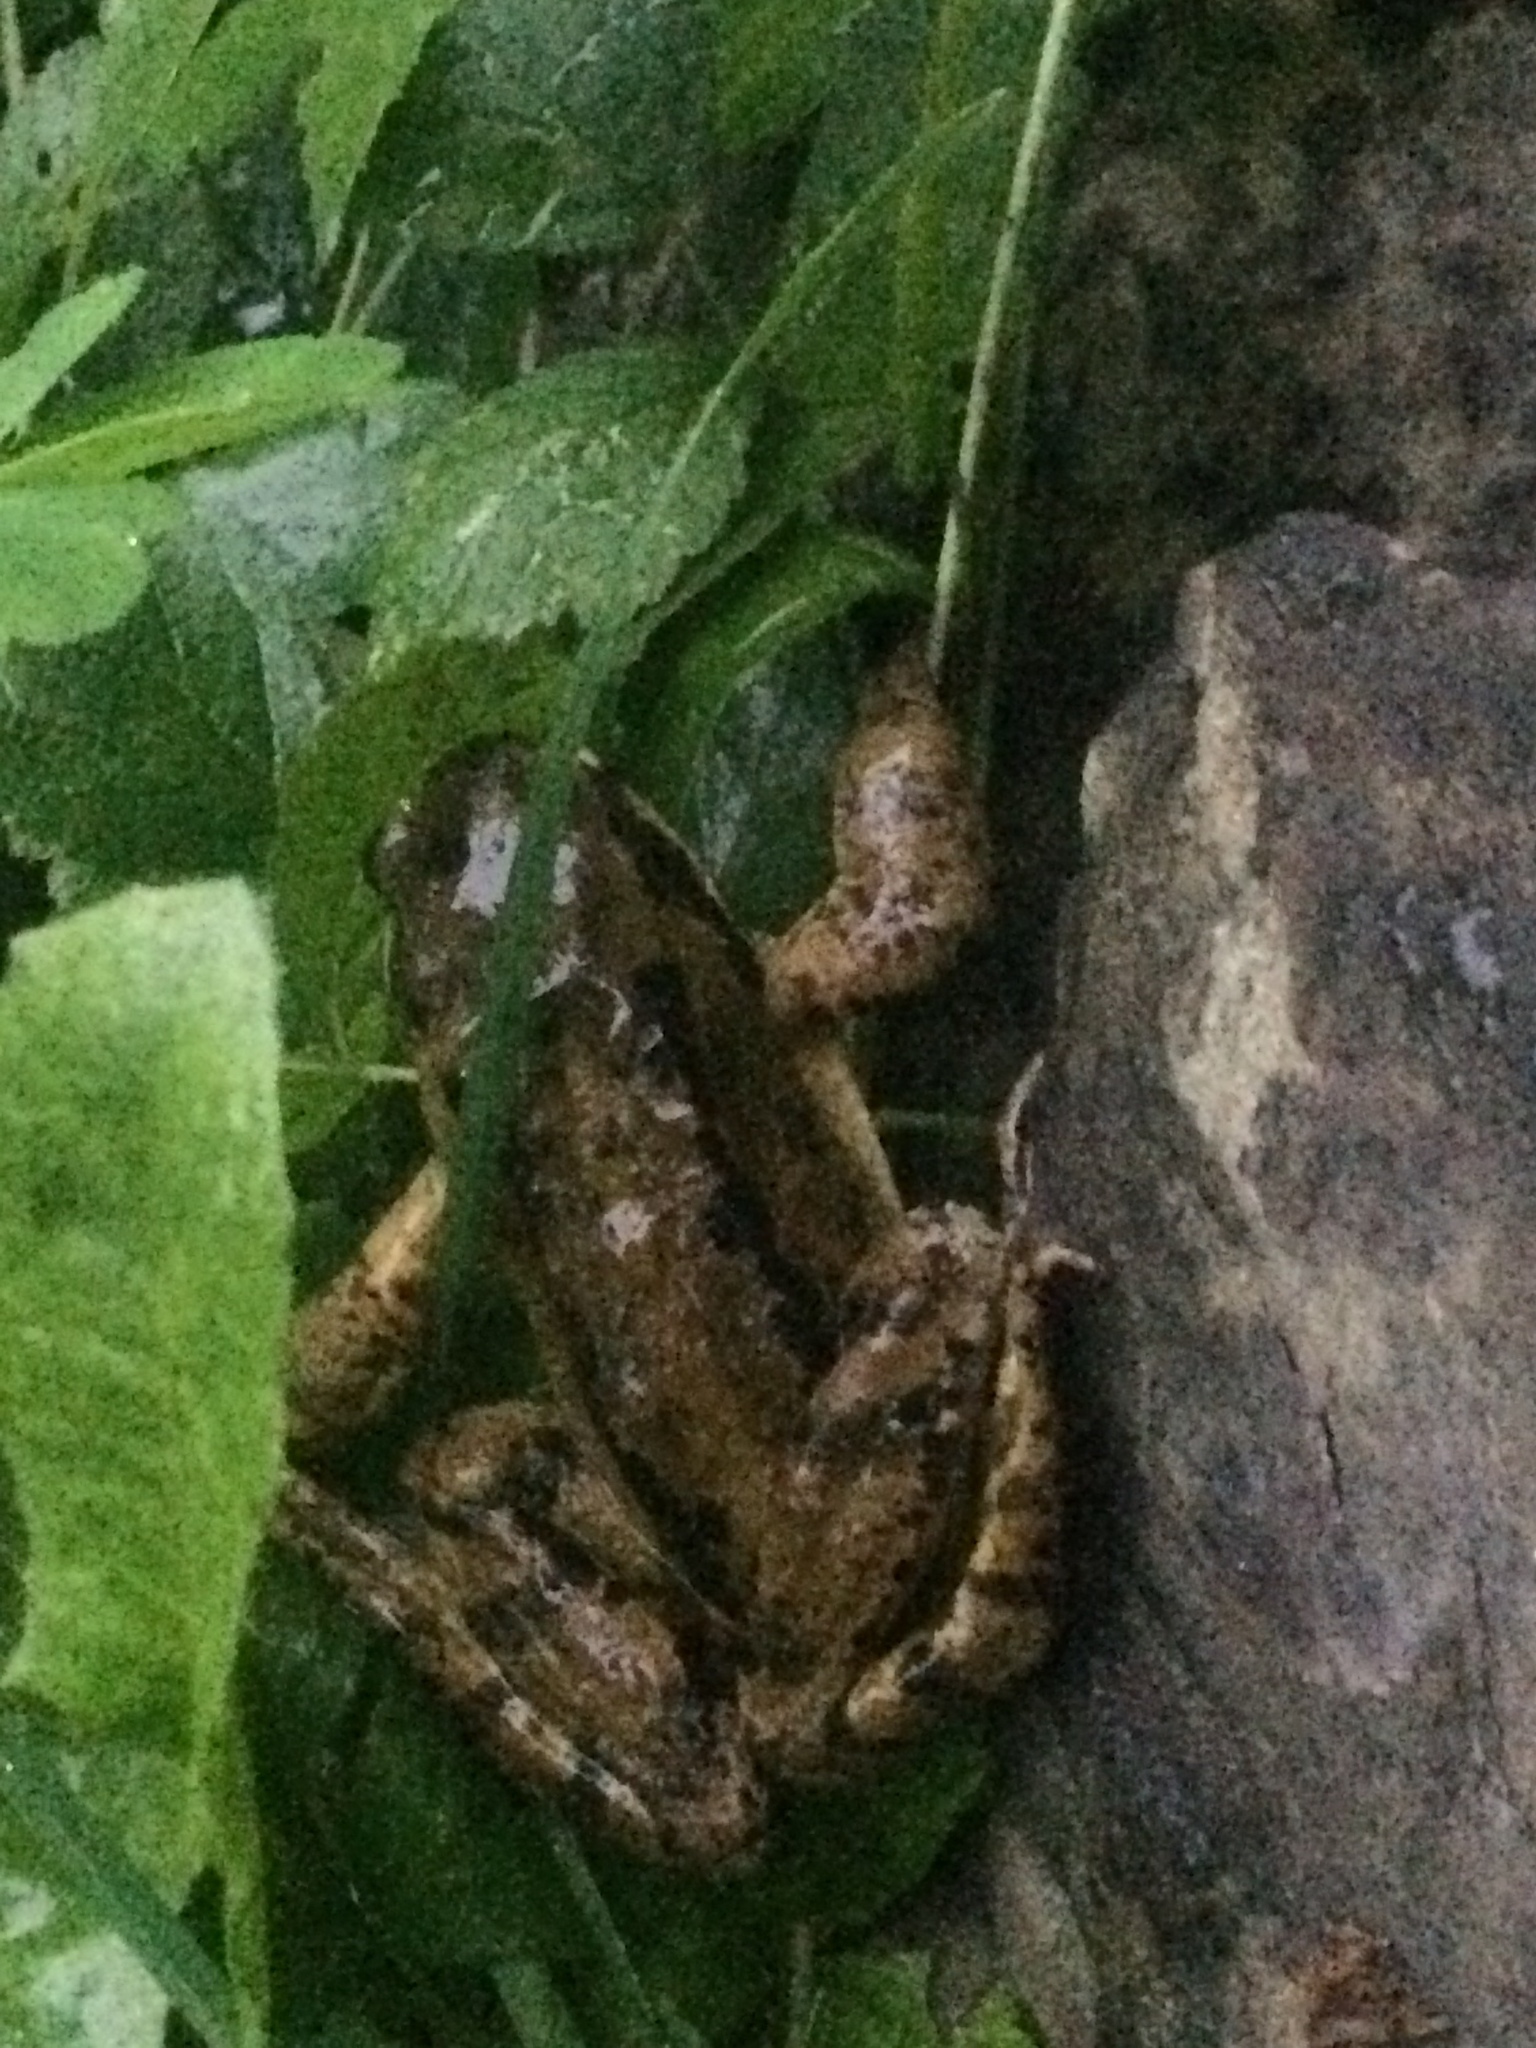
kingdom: Animalia
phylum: Chordata
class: Amphibia
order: Anura
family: Ranidae
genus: Rana
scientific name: Rana temporaria
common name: Common frog
